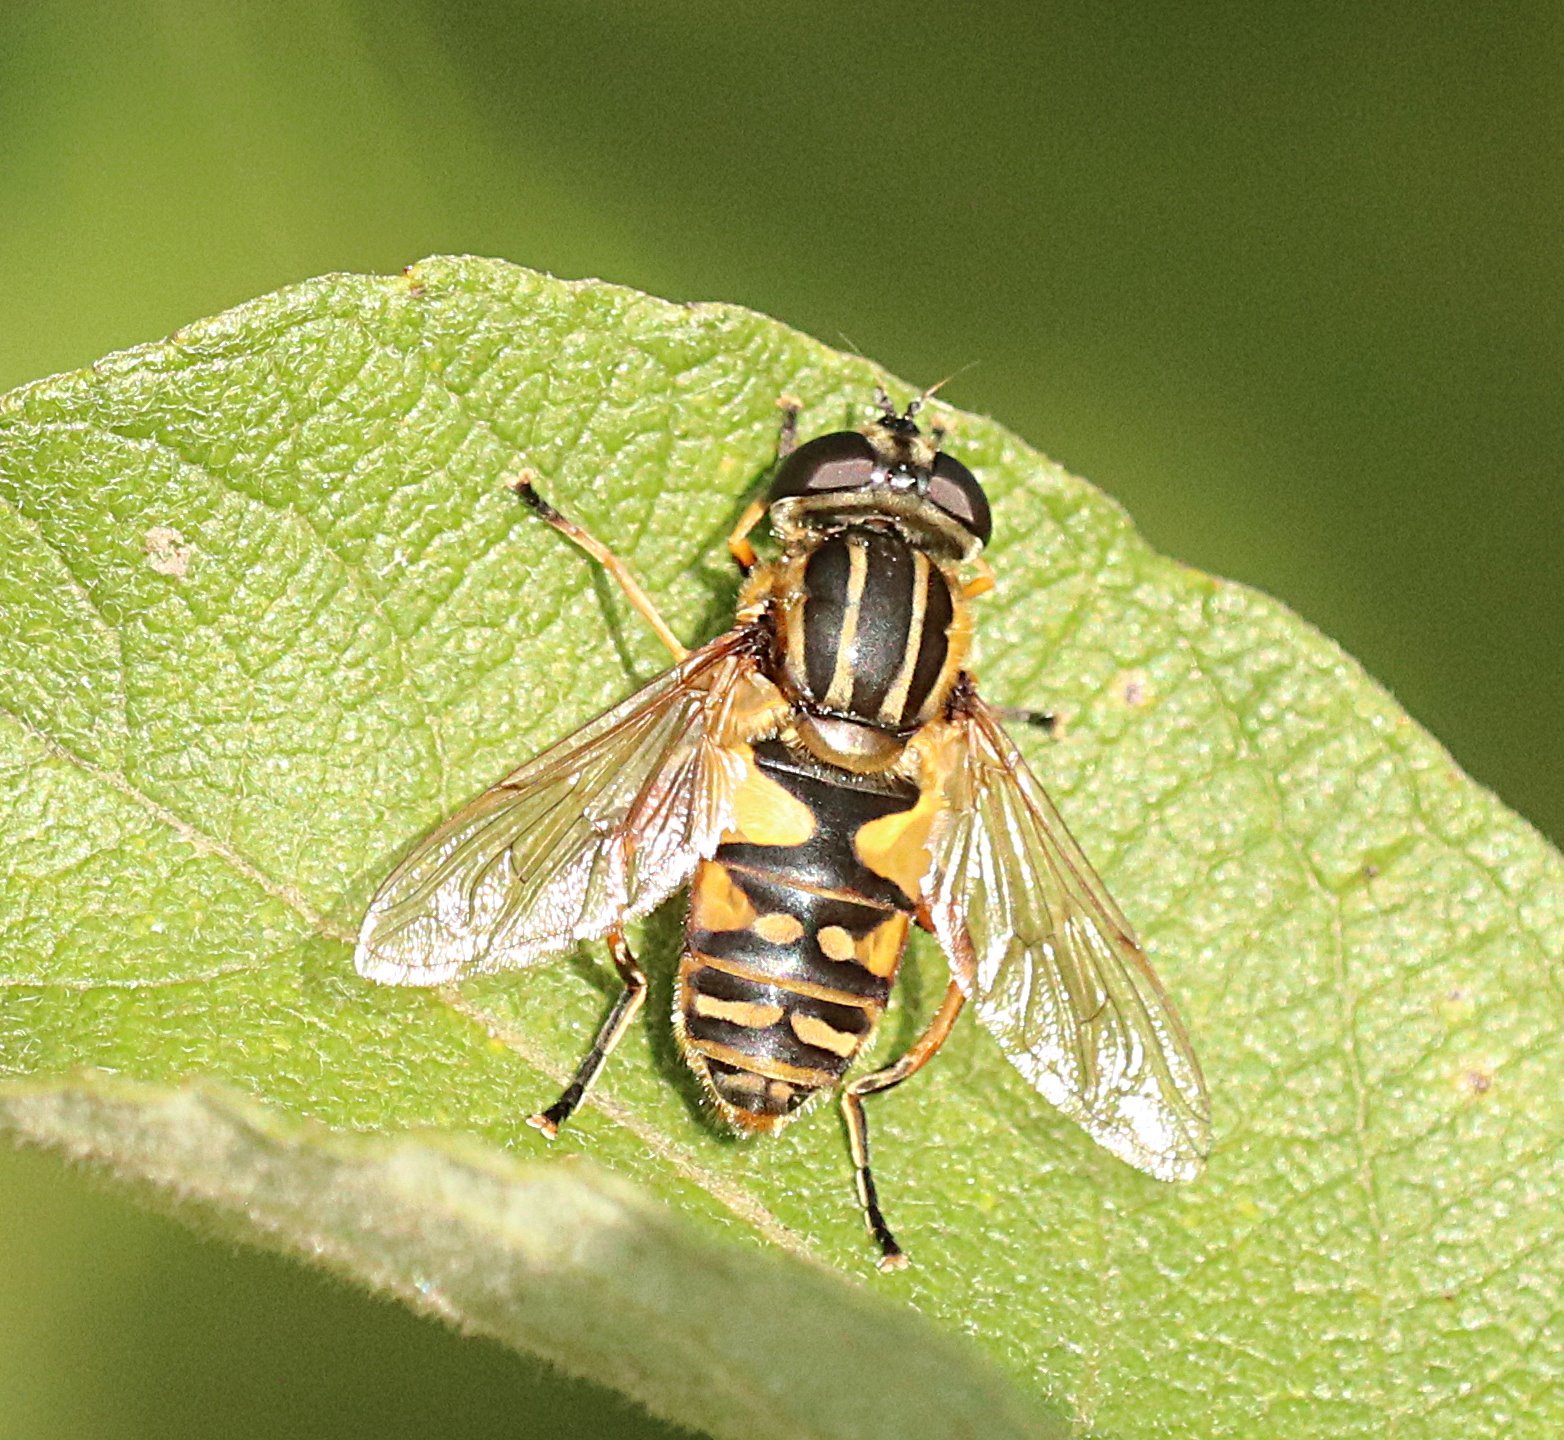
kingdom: Animalia
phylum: Arthropoda
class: Insecta
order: Diptera
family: Syrphidae
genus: Helophilus
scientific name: Helophilus pendulus
